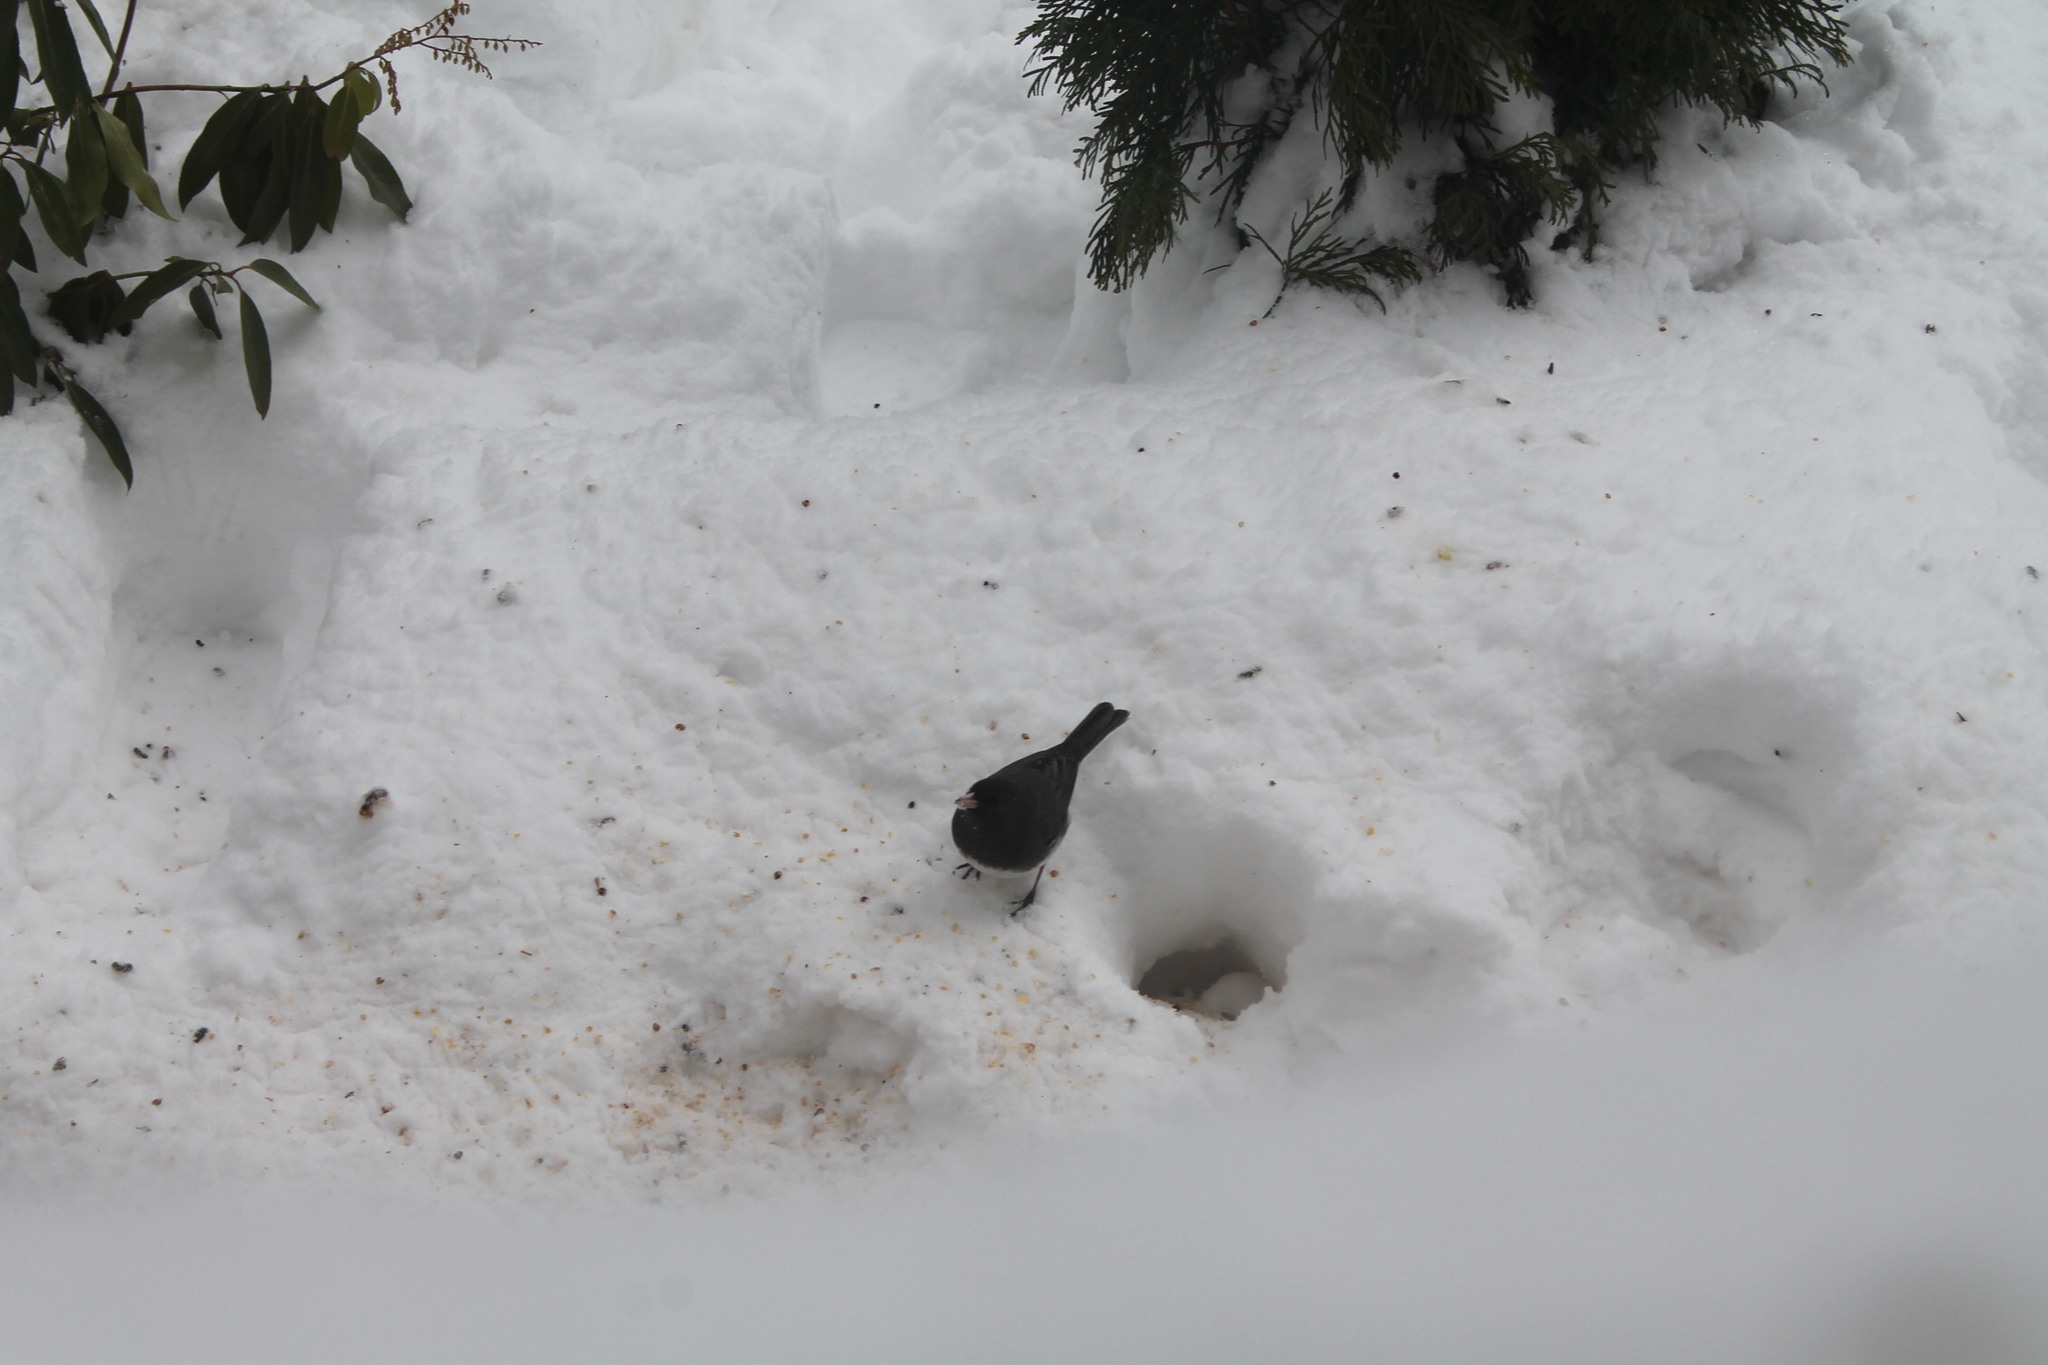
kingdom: Animalia
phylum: Chordata
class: Aves
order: Passeriformes
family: Passerellidae
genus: Junco
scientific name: Junco hyemalis
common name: Dark-eyed junco
